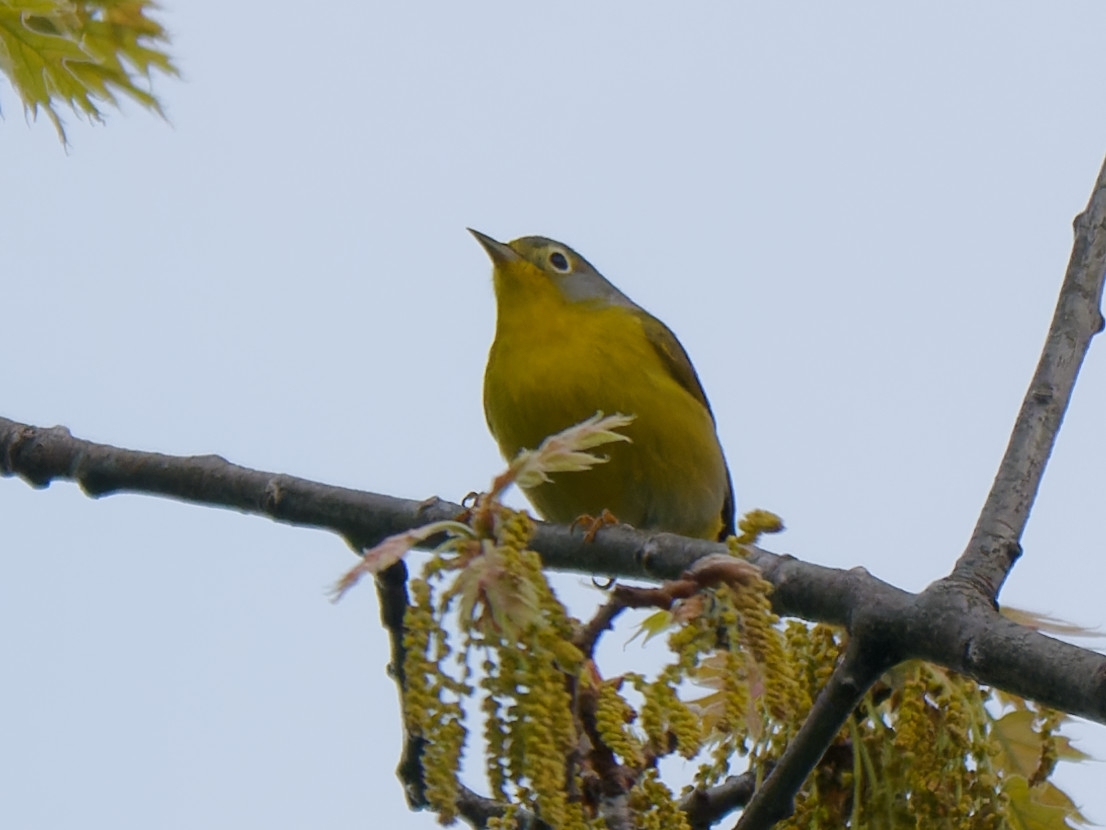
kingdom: Animalia
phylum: Chordata
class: Aves
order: Passeriformes
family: Parulidae
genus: Leiothlypis
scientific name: Leiothlypis ruficapilla
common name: Nashville warbler
